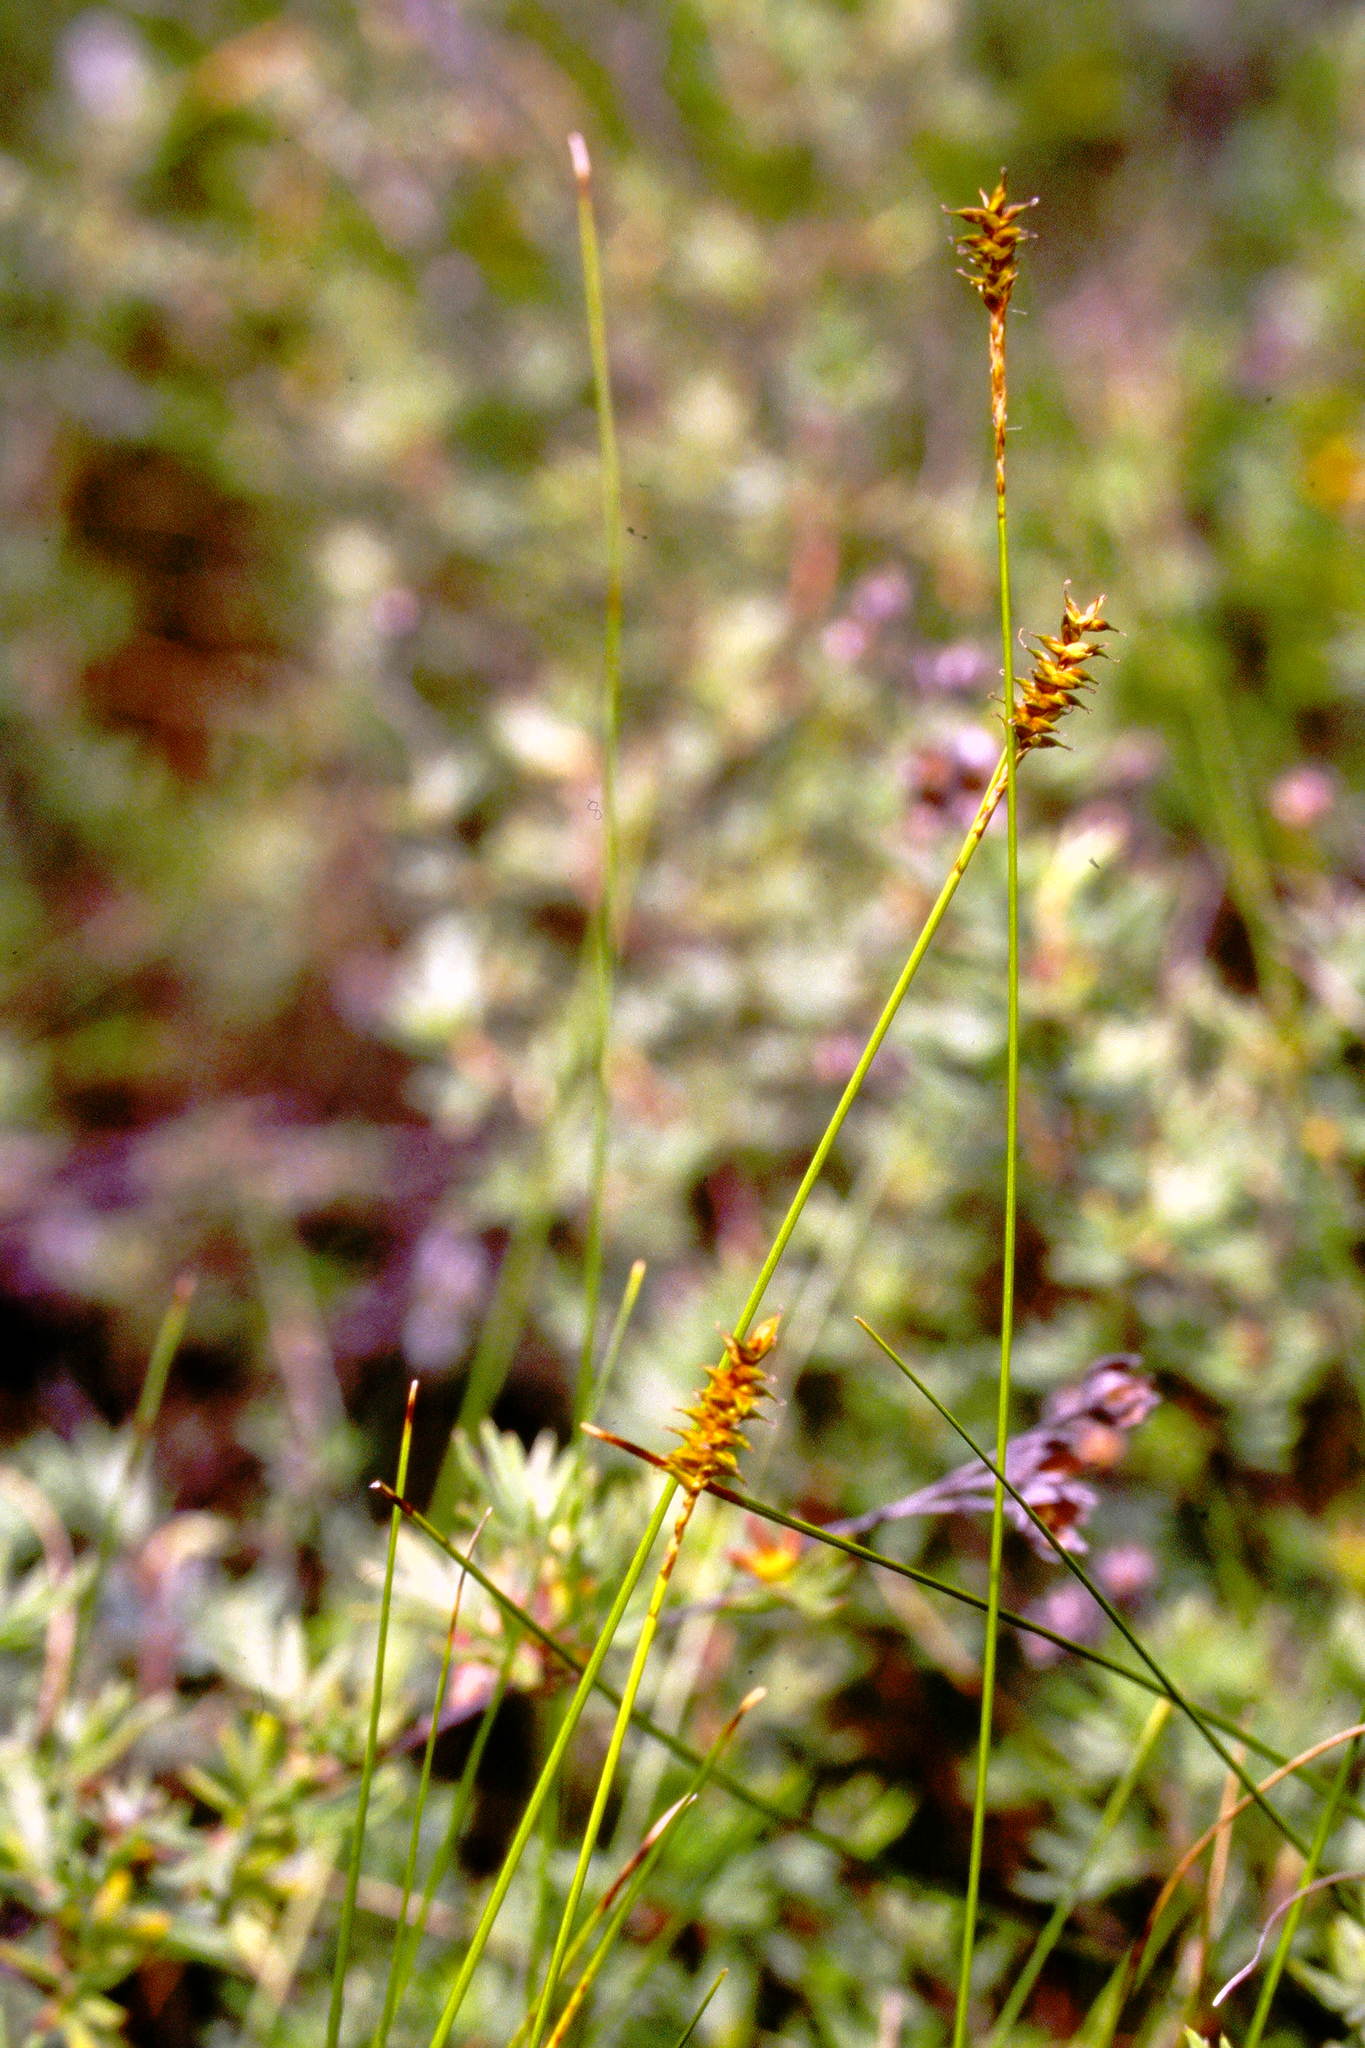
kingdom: Plantae
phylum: Tracheophyta
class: Liliopsida
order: Poales
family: Cyperaceae
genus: Carex
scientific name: Carex exilis
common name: Coastal sedge
